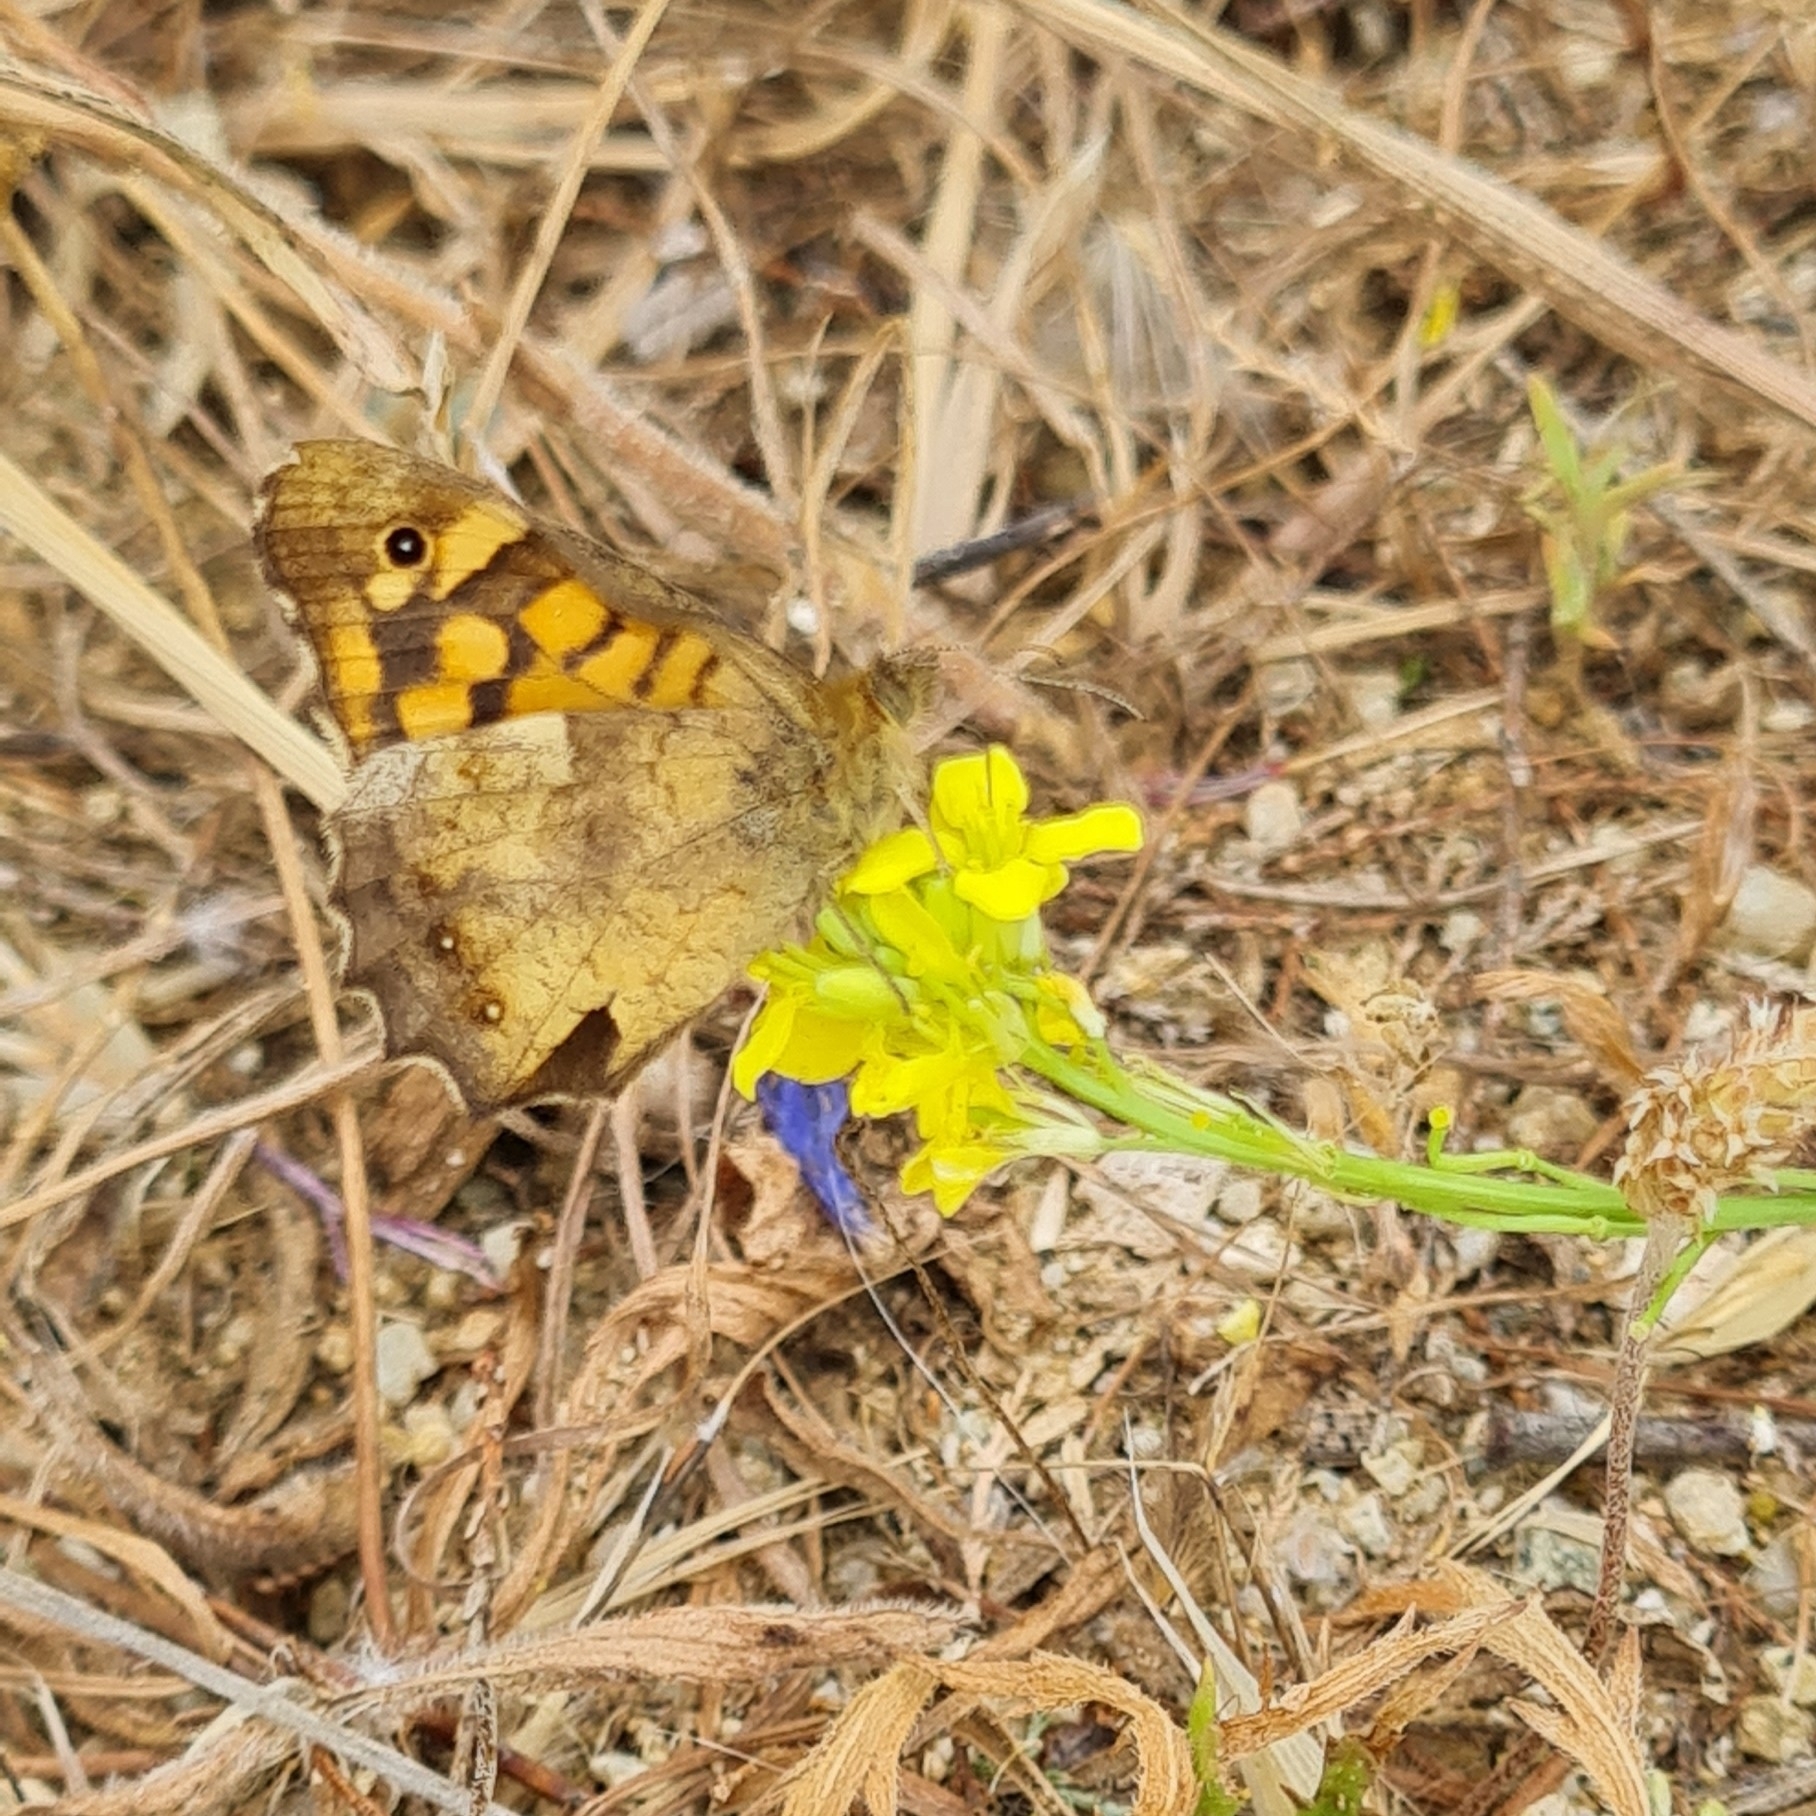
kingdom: Animalia
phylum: Arthropoda
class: Insecta
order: Lepidoptera
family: Nymphalidae
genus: Pararge
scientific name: Pararge aegeria
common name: Speckled wood
